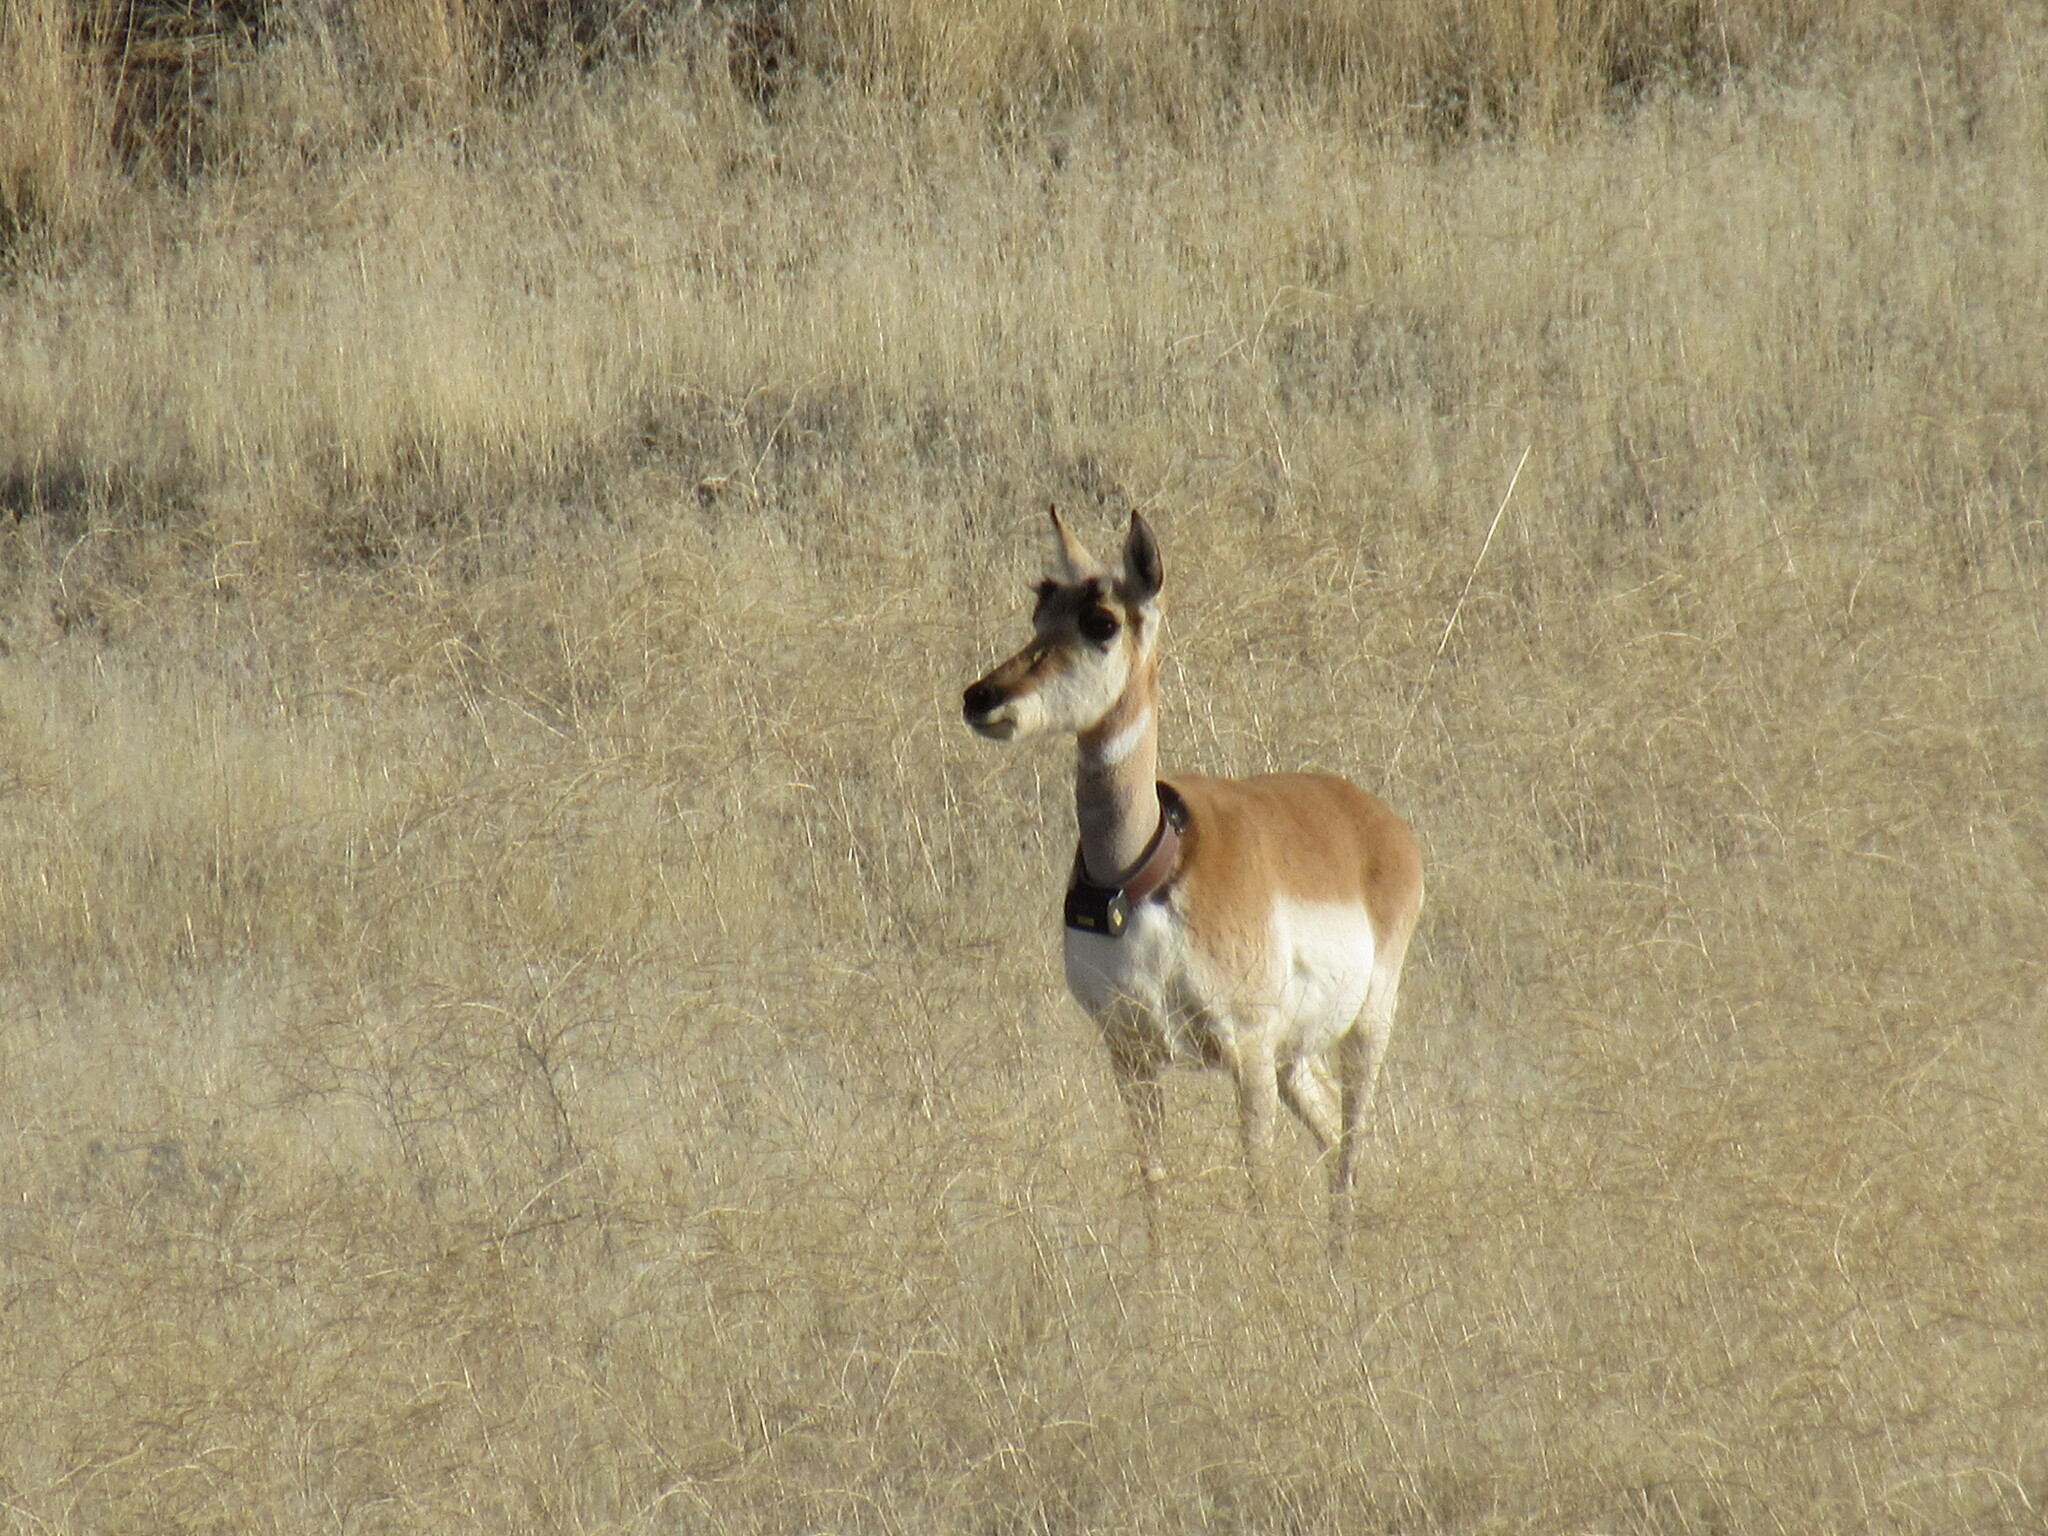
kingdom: Animalia
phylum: Chordata
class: Mammalia
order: Artiodactyla
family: Antilocapridae
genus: Antilocapra
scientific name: Antilocapra americana
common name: Pronghorn
